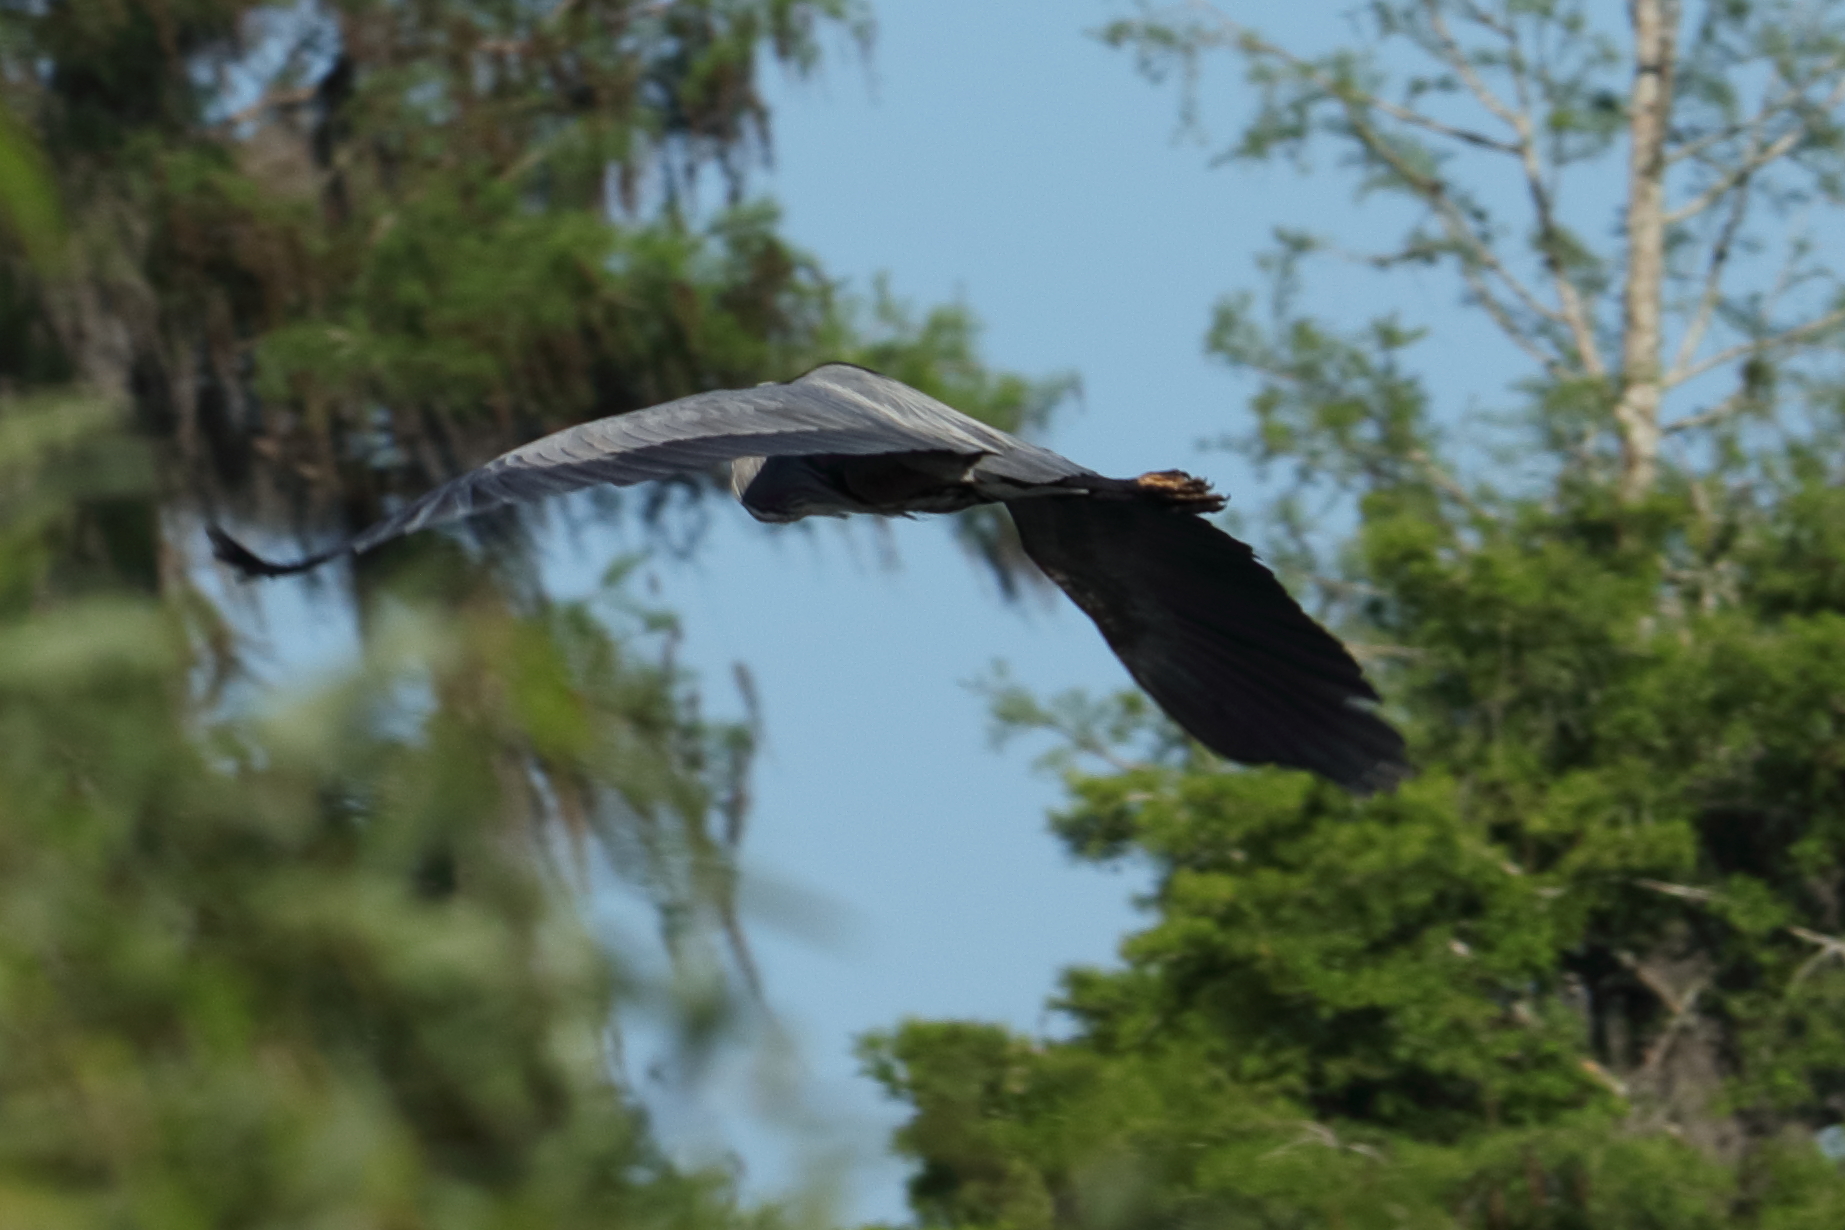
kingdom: Animalia
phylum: Chordata
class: Aves
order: Pelecaniformes
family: Ardeidae
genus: Ardea
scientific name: Ardea herodias
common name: Great blue heron
